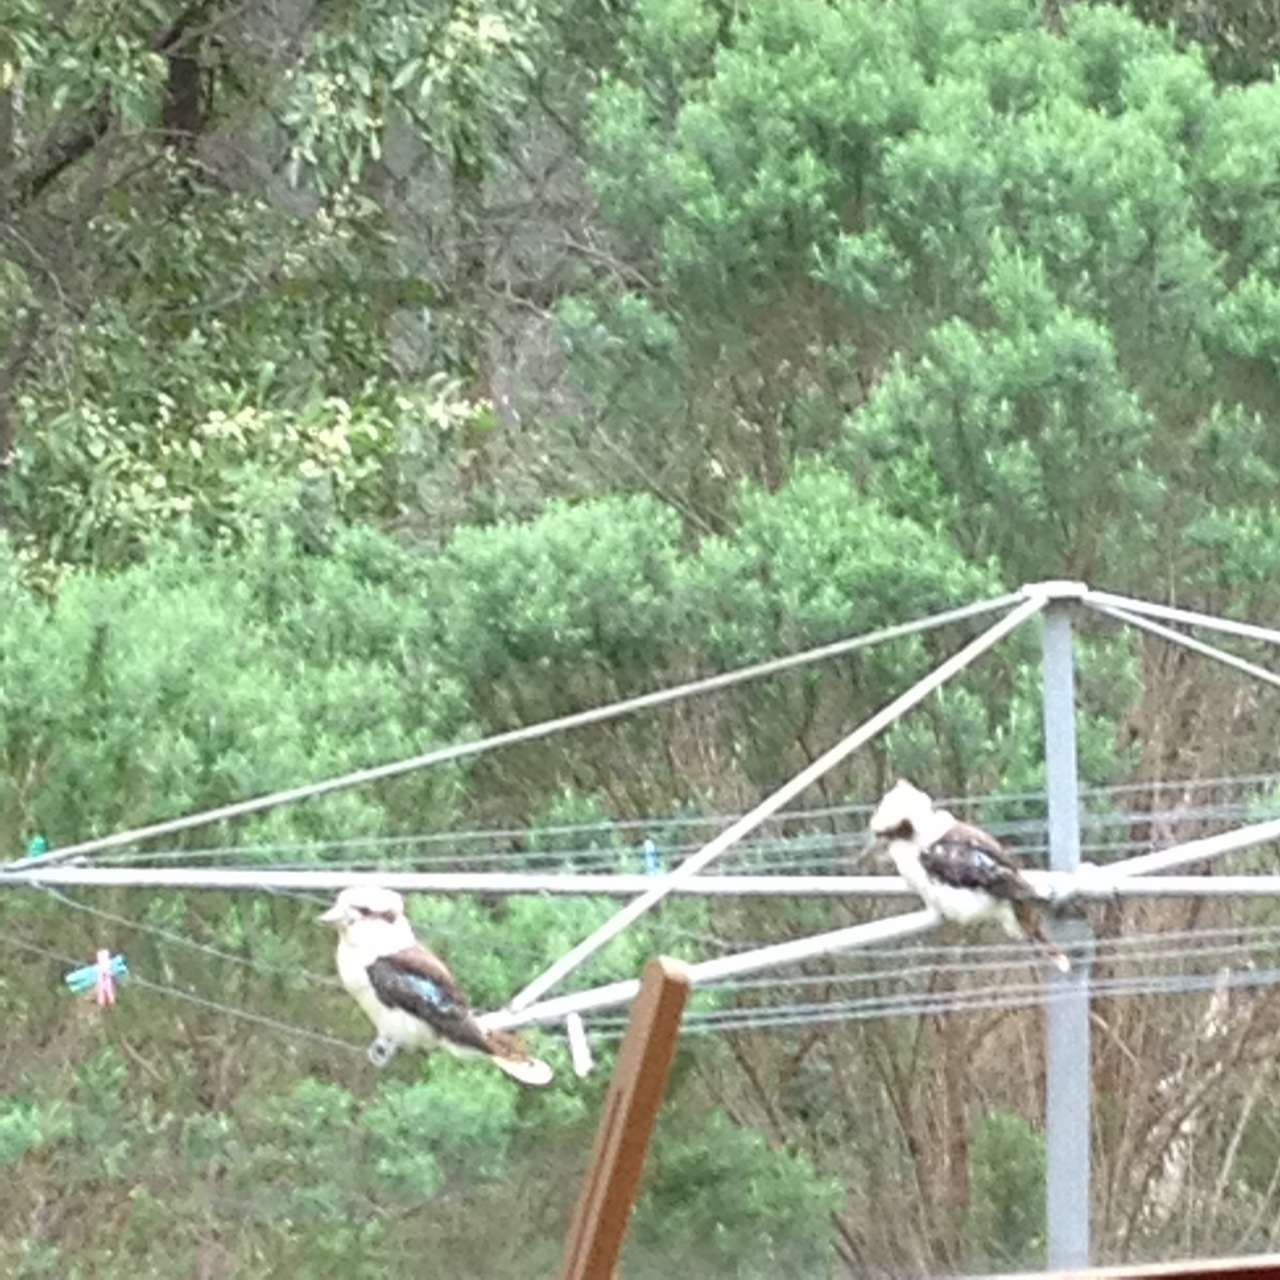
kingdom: Animalia
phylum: Chordata
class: Aves
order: Coraciiformes
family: Alcedinidae
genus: Dacelo
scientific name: Dacelo novaeguineae
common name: Laughing kookaburra
